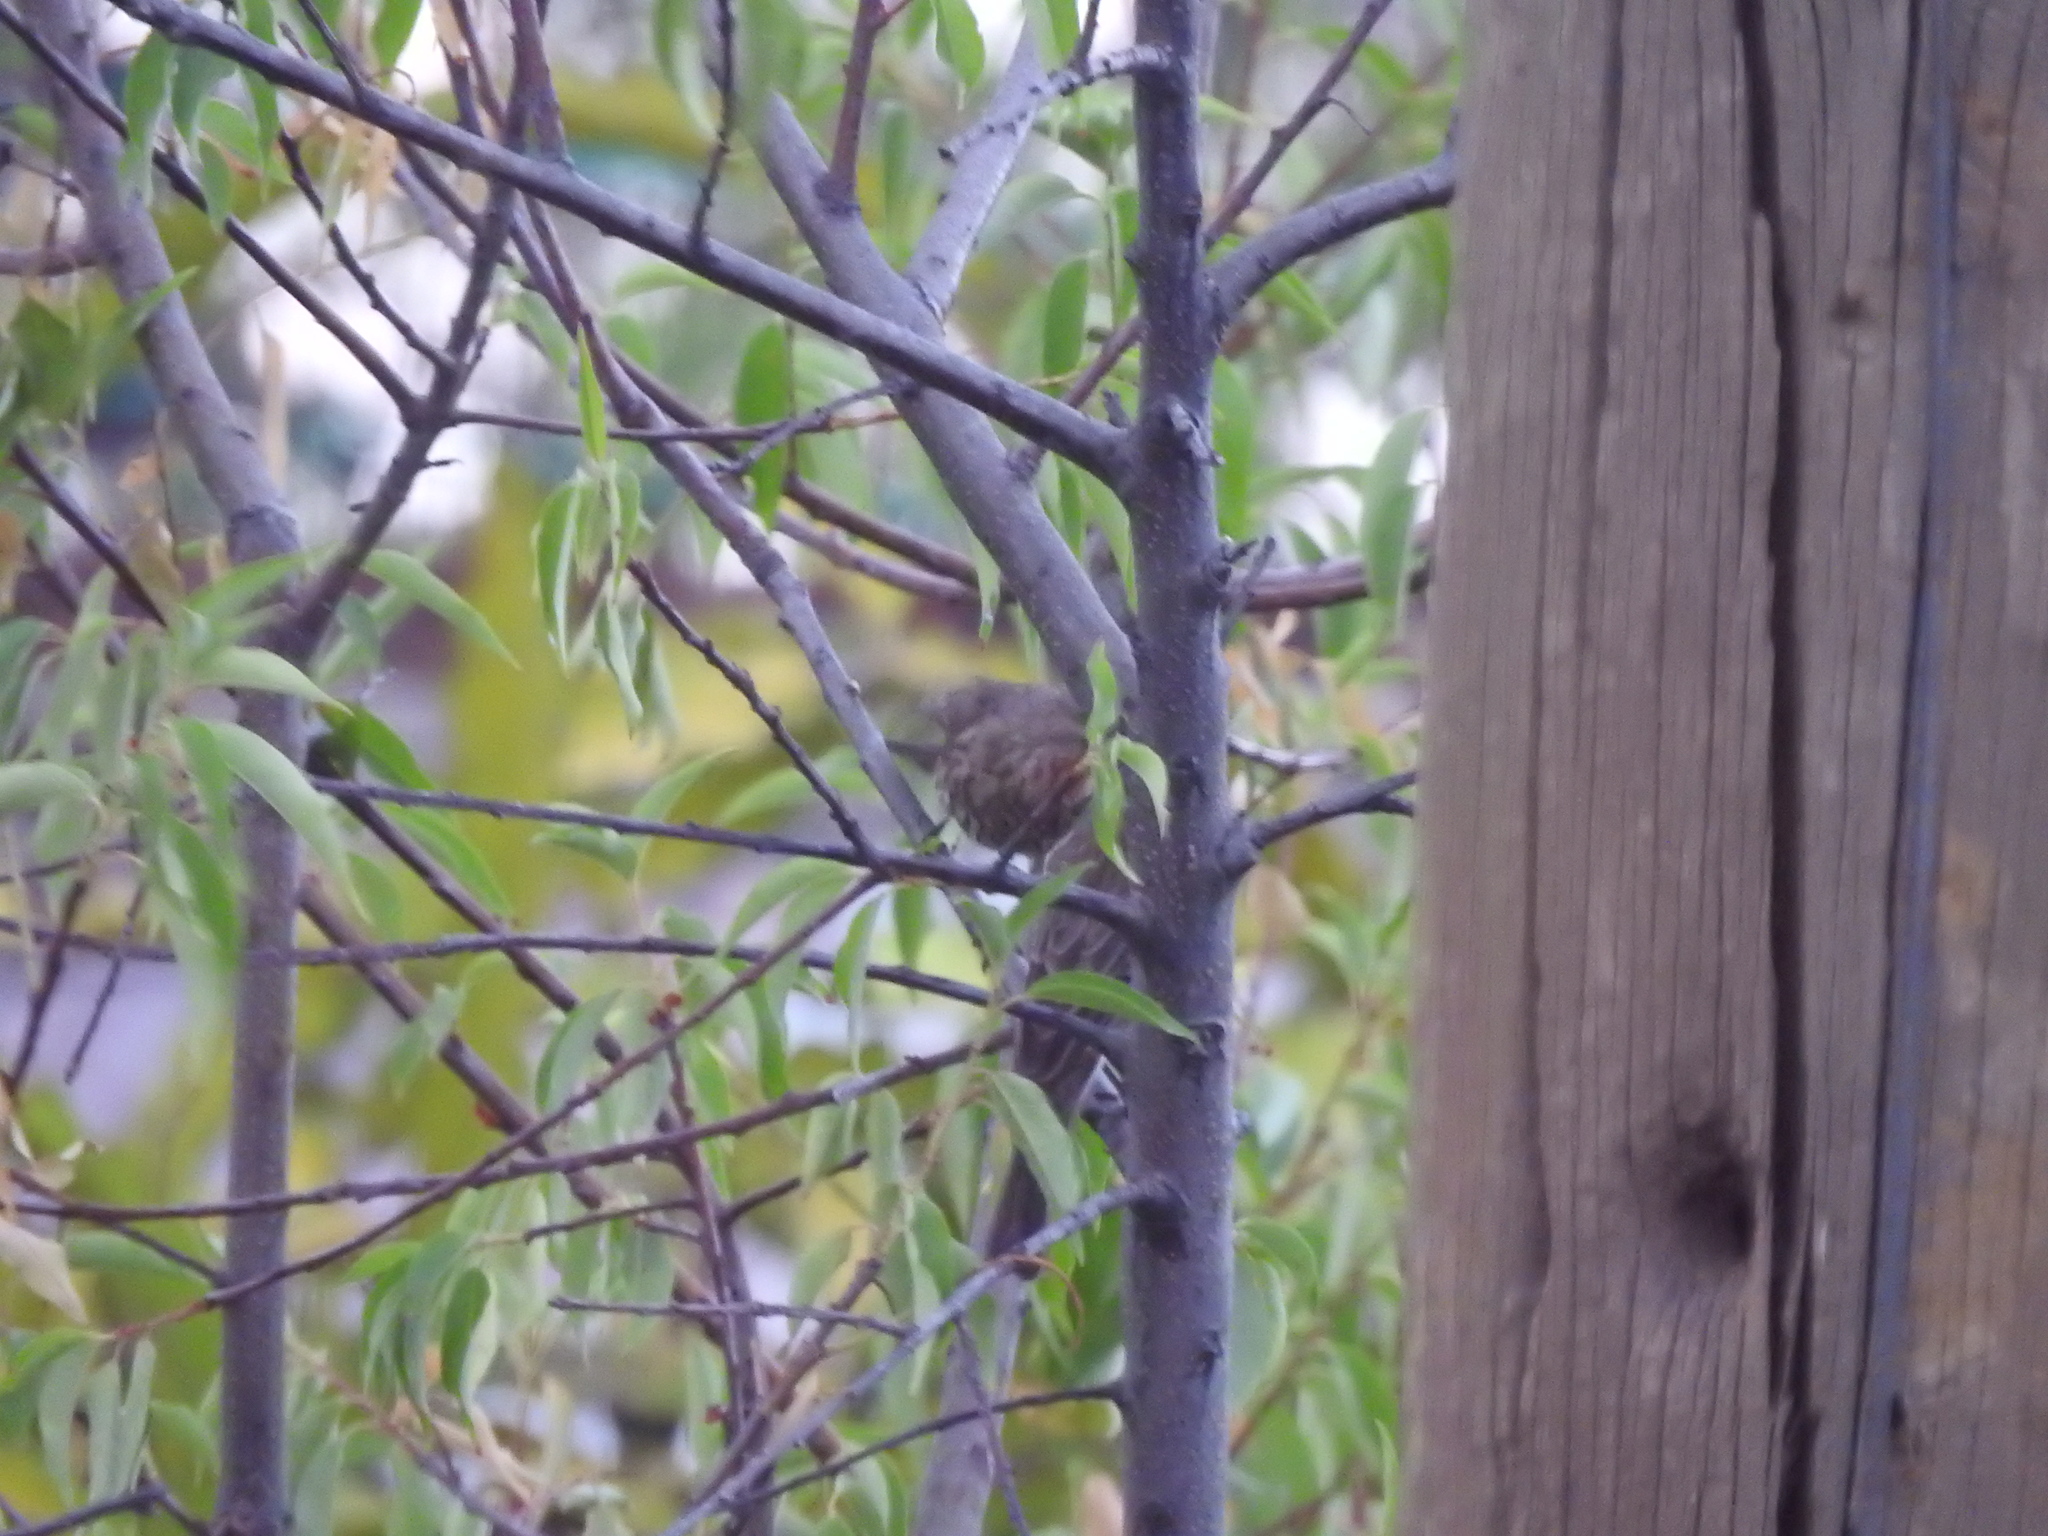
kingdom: Animalia
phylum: Chordata
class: Aves
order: Passeriformes
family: Fringillidae
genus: Haemorhous
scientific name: Haemorhous mexicanus
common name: House finch
